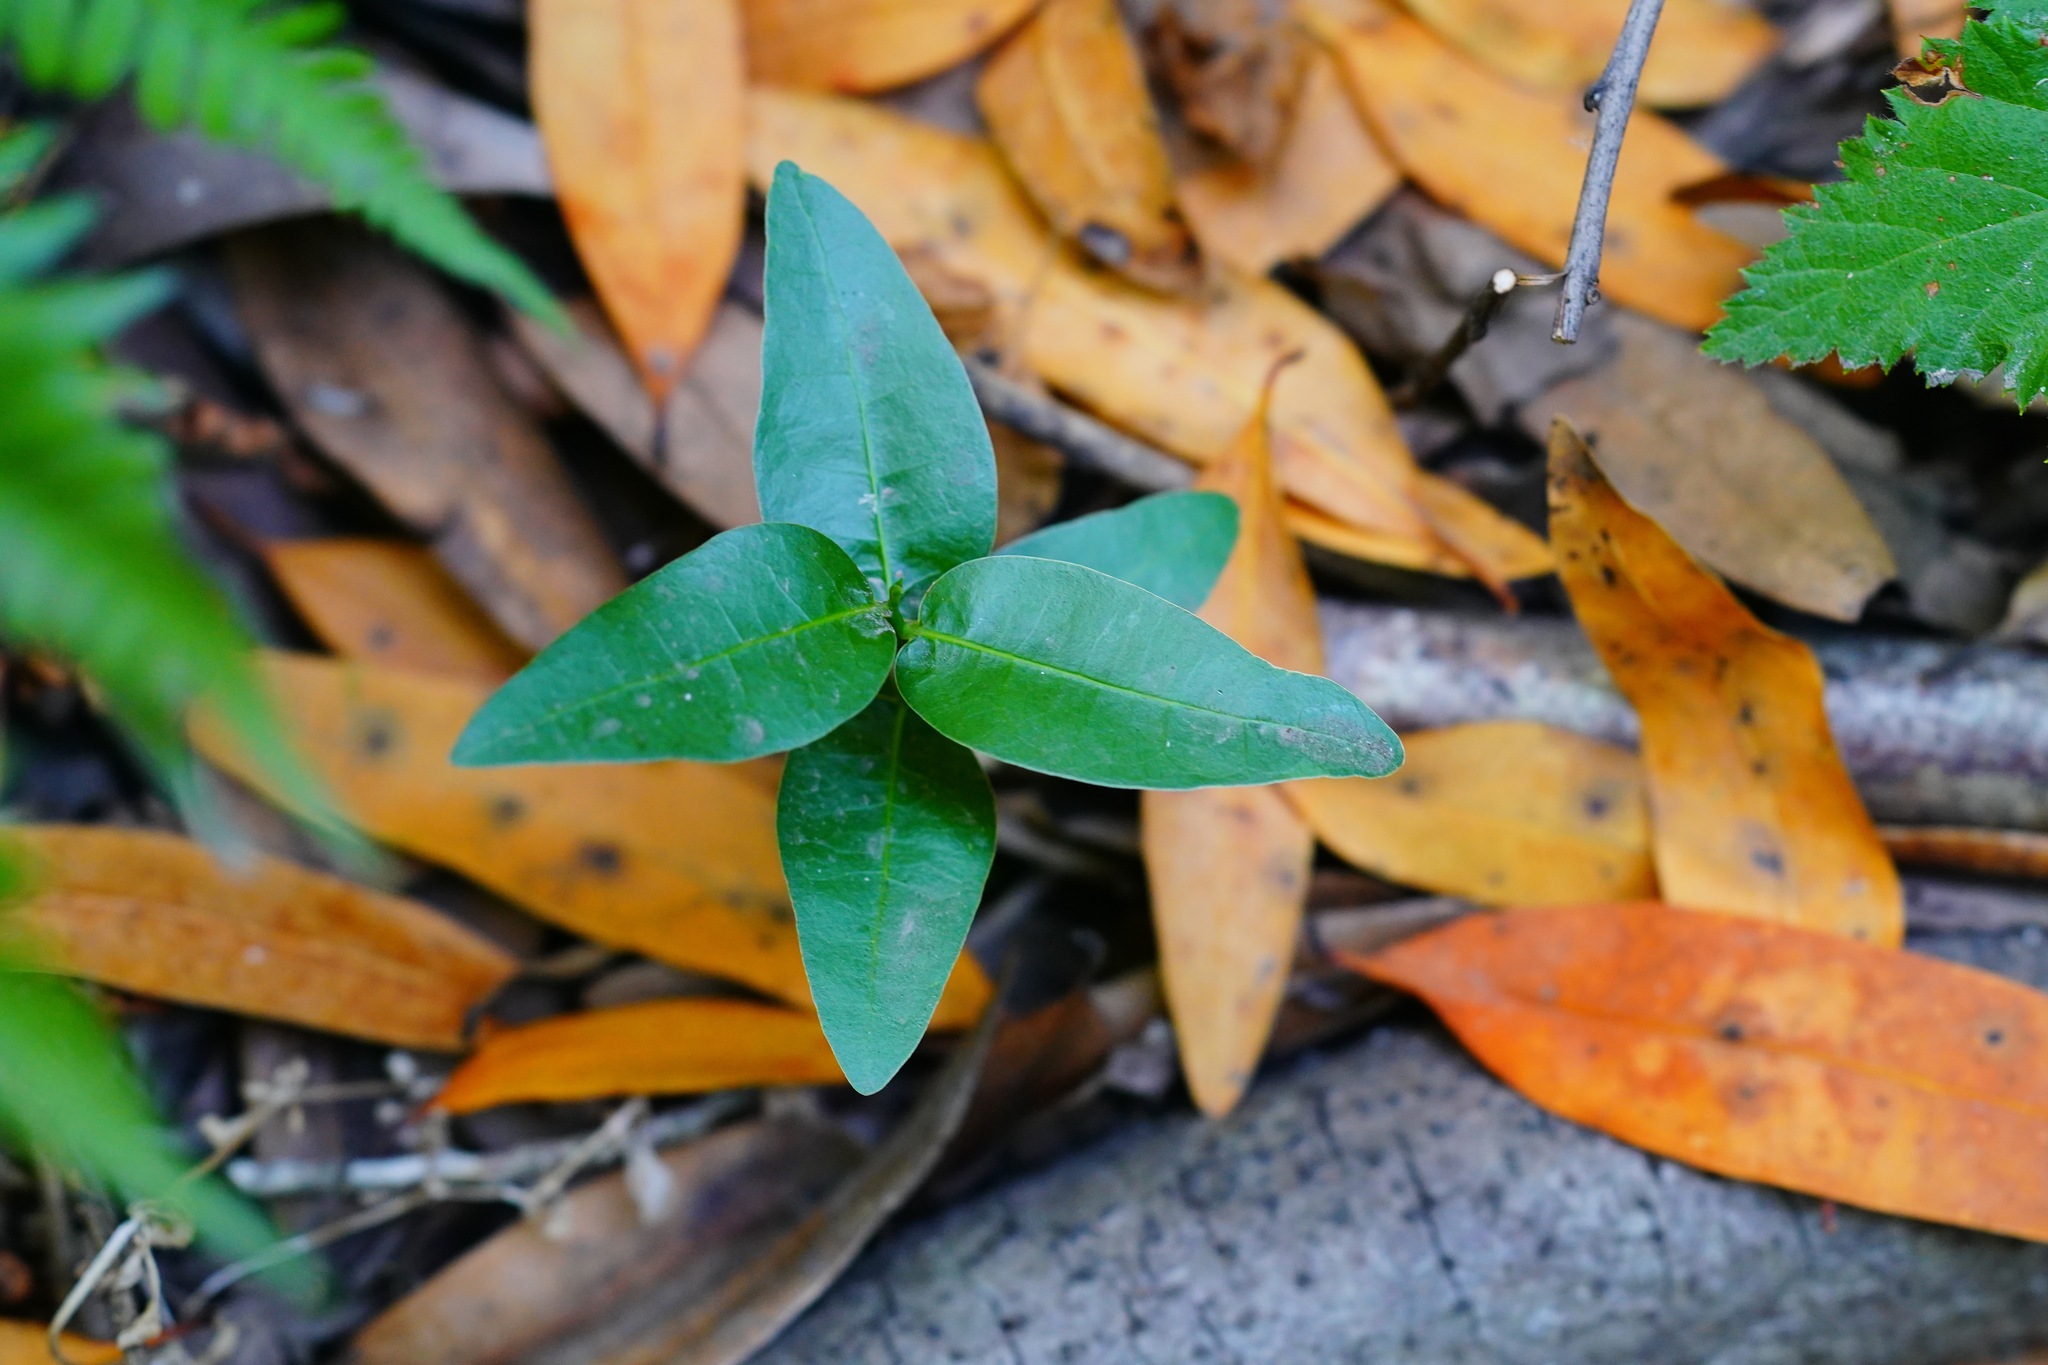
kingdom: Plantae
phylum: Tracheophyta
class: Magnoliopsida
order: Laurales
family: Lauraceae
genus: Umbellularia
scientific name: Umbellularia californica
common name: California bay
